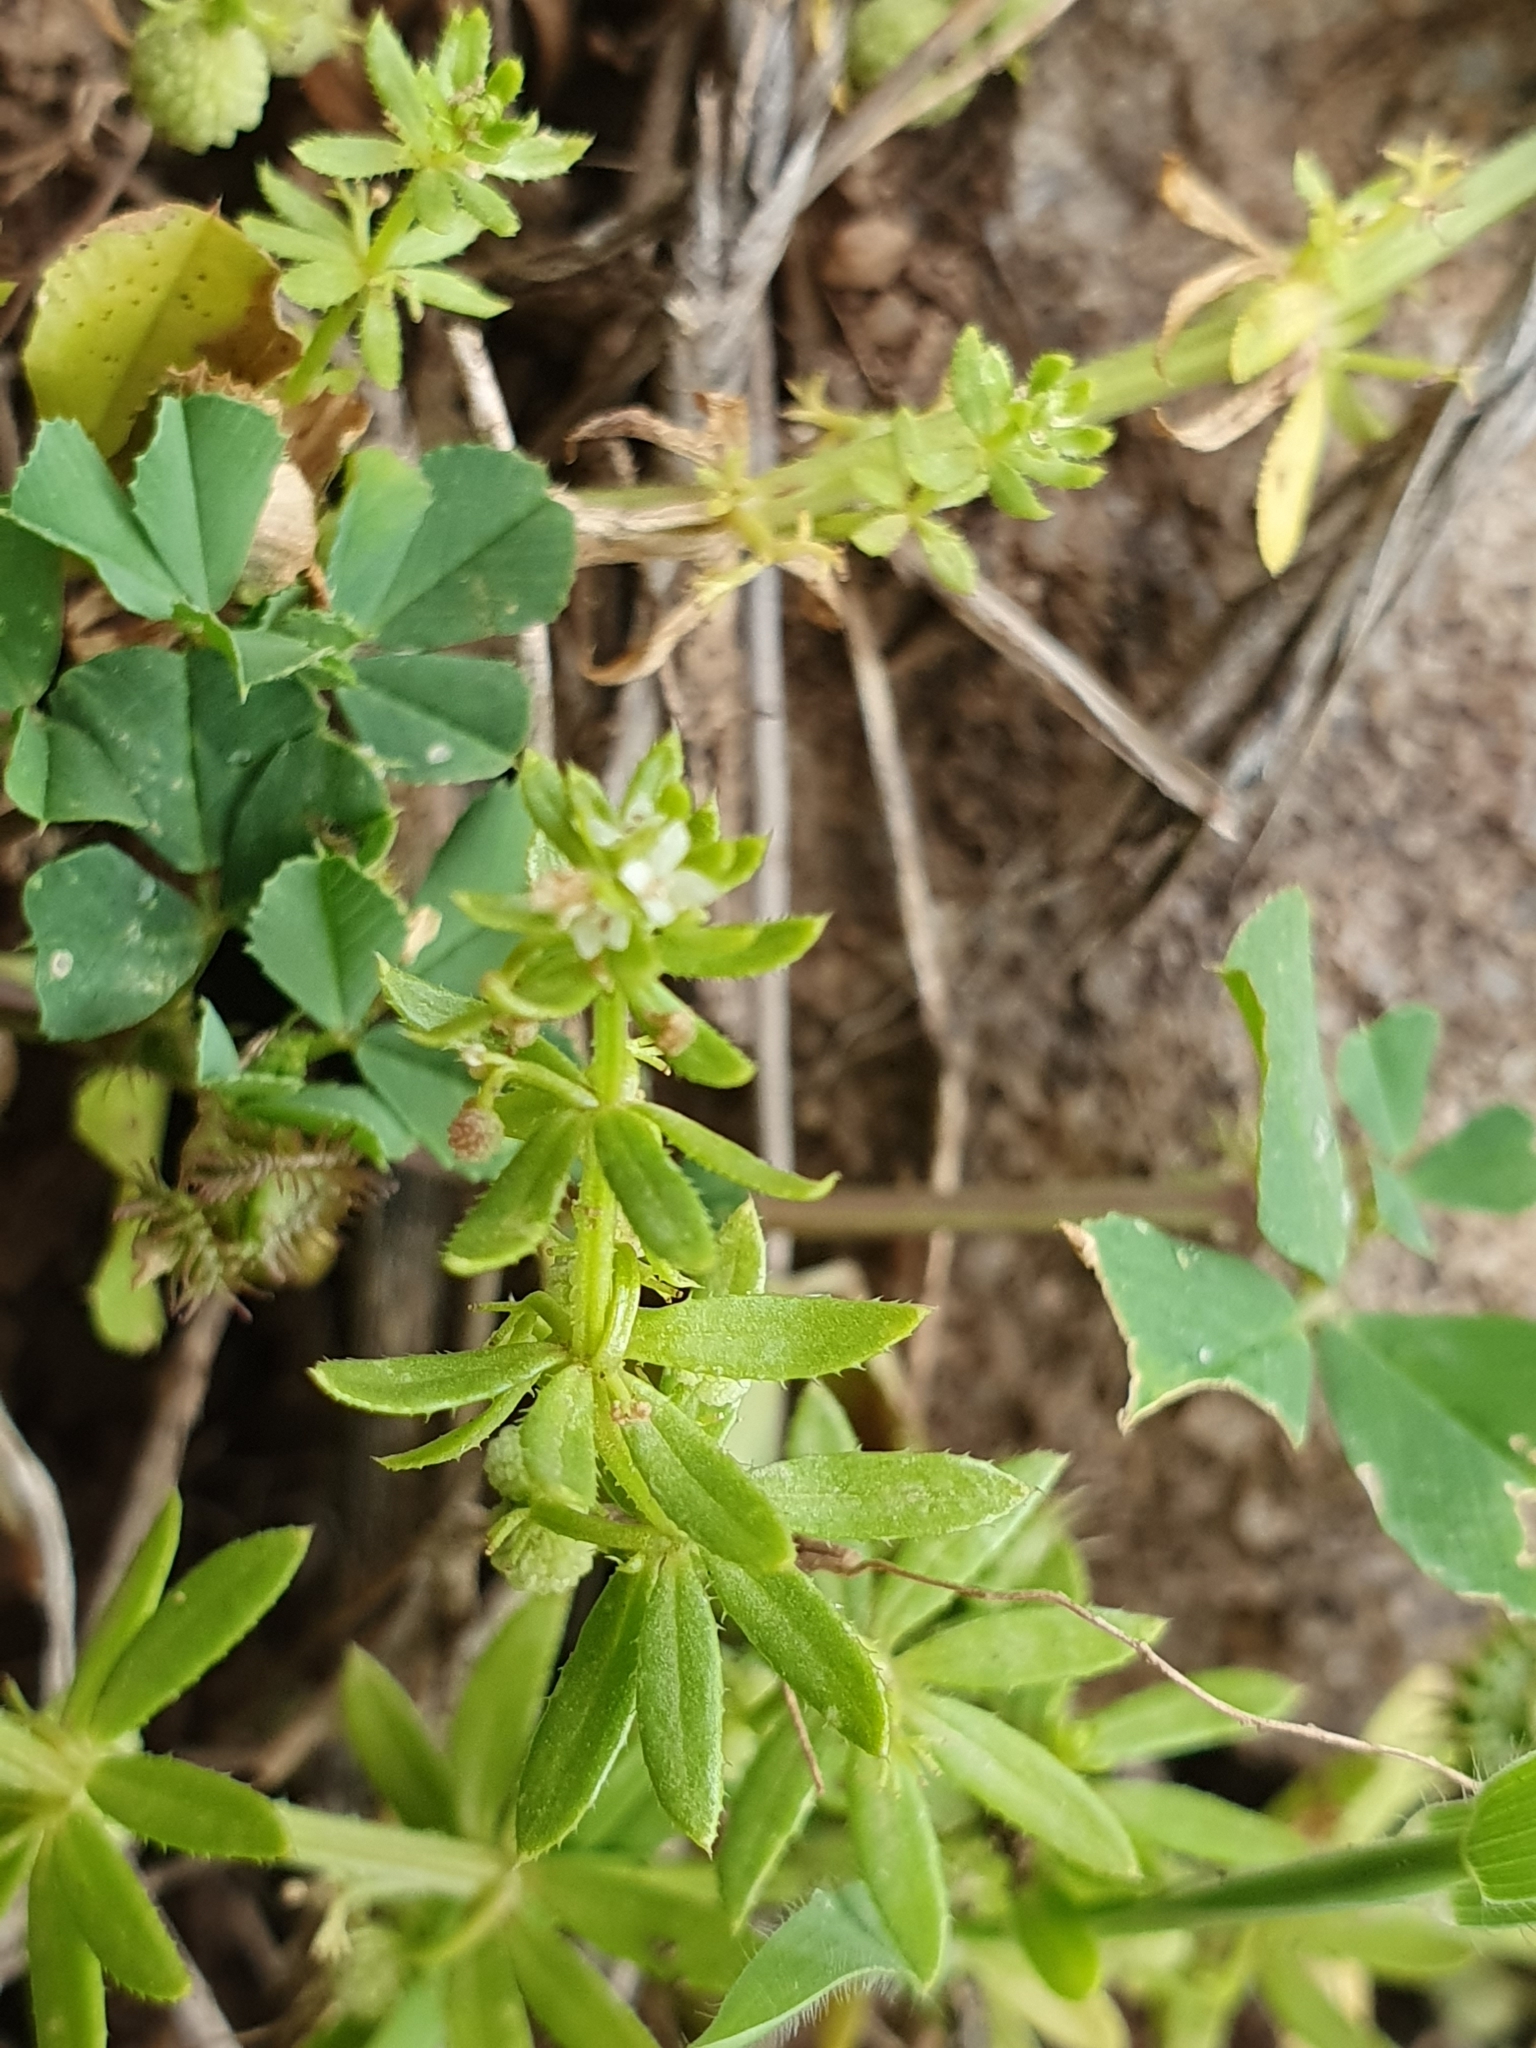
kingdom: Plantae
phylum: Tracheophyta
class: Magnoliopsida
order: Gentianales
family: Rubiaceae
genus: Galium
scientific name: Galium verrucosum
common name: Warty bedstraw
